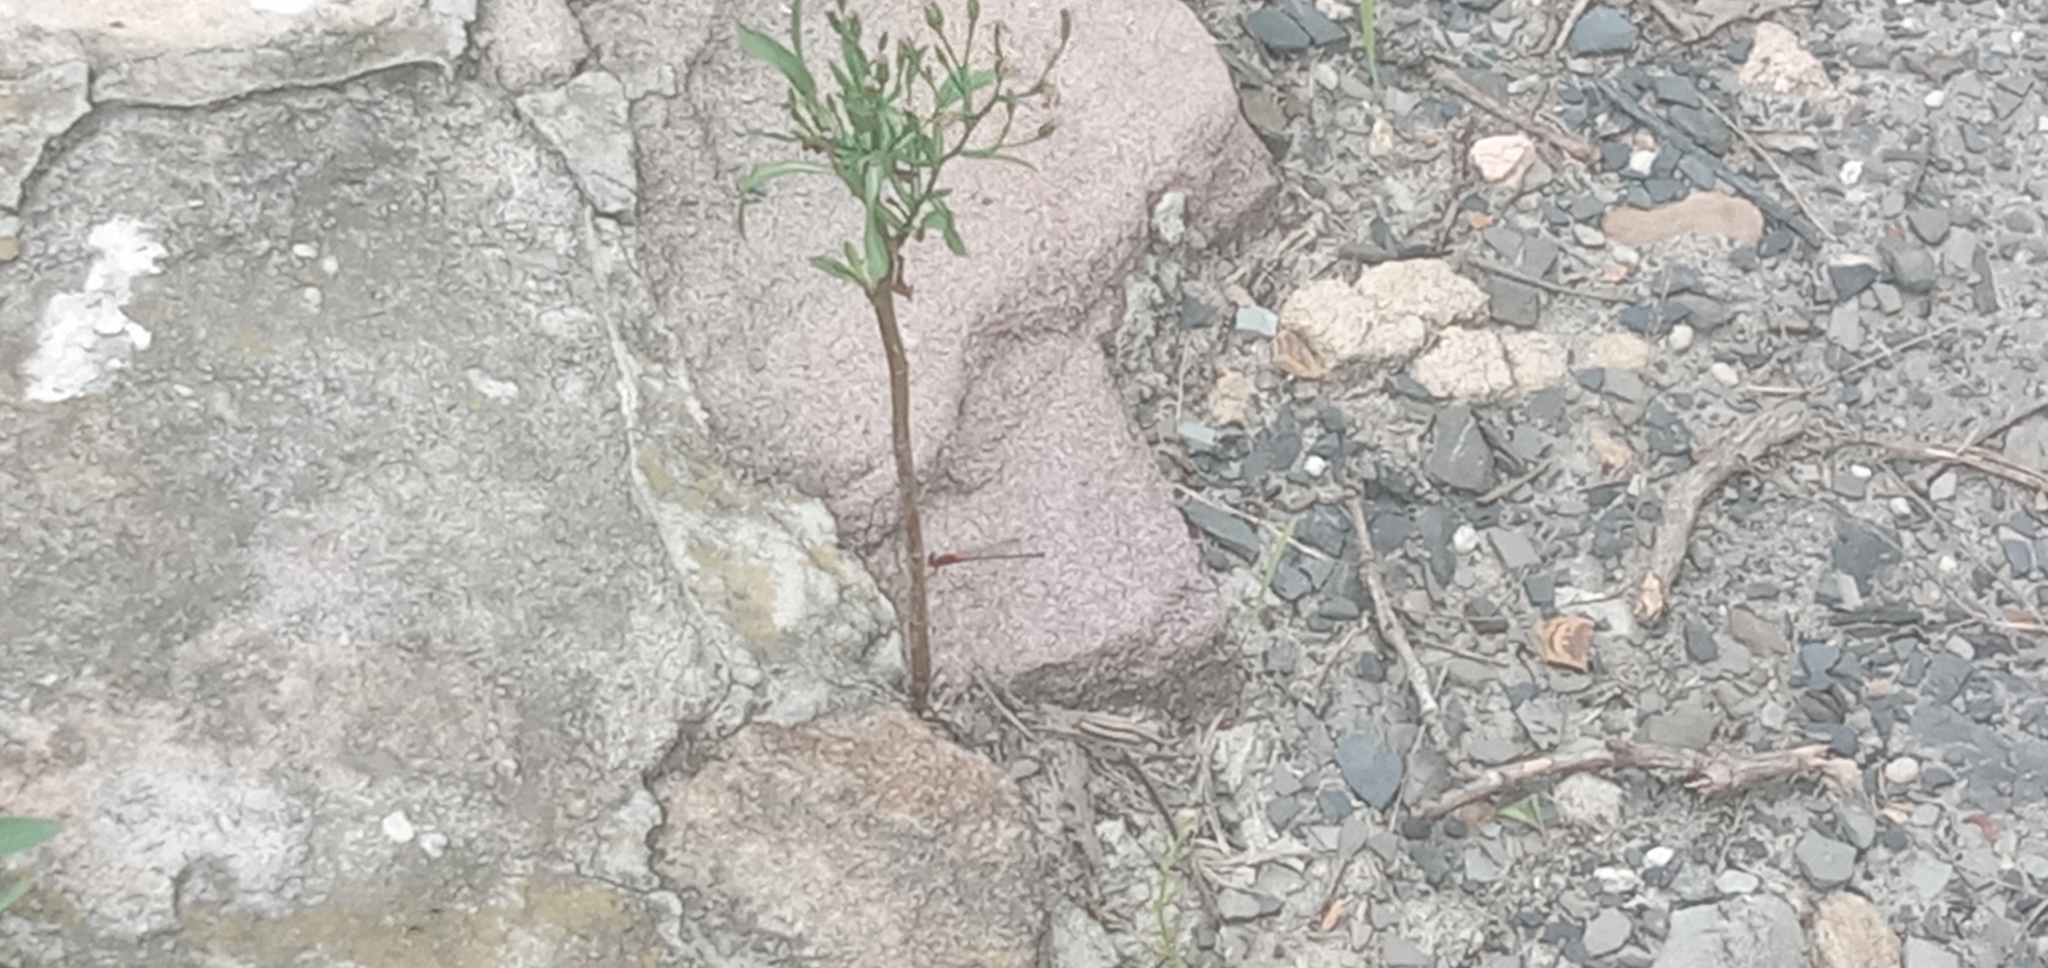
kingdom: Animalia
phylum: Arthropoda
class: Insecta
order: Odonata
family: Coenagrionidae
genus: Xanthagrion
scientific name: Xanthagrion erythroneurum
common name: Red and blue damsel
